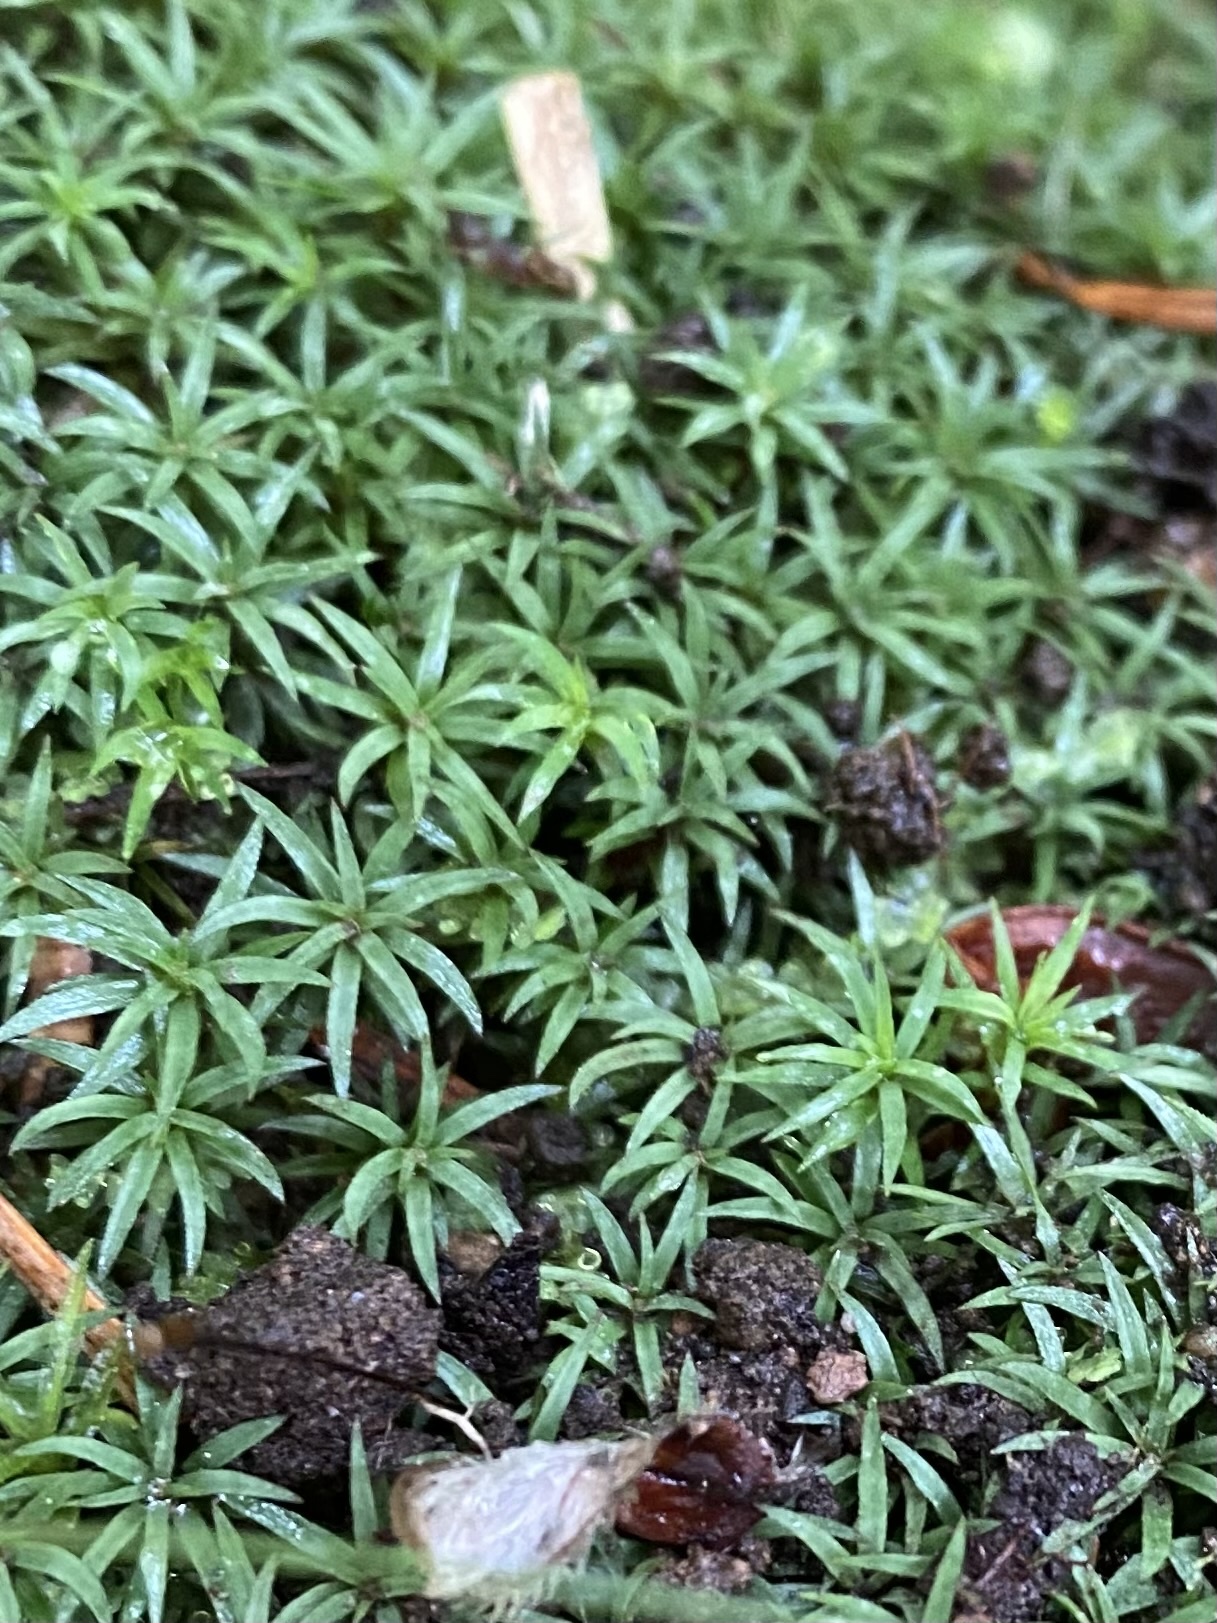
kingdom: Plantae
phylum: Bryophyta
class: Polytrichopsida
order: Polytrichales
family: Polytrichaceae
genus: Atrichum
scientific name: Atrichum undulatum
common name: Common smoothcap
